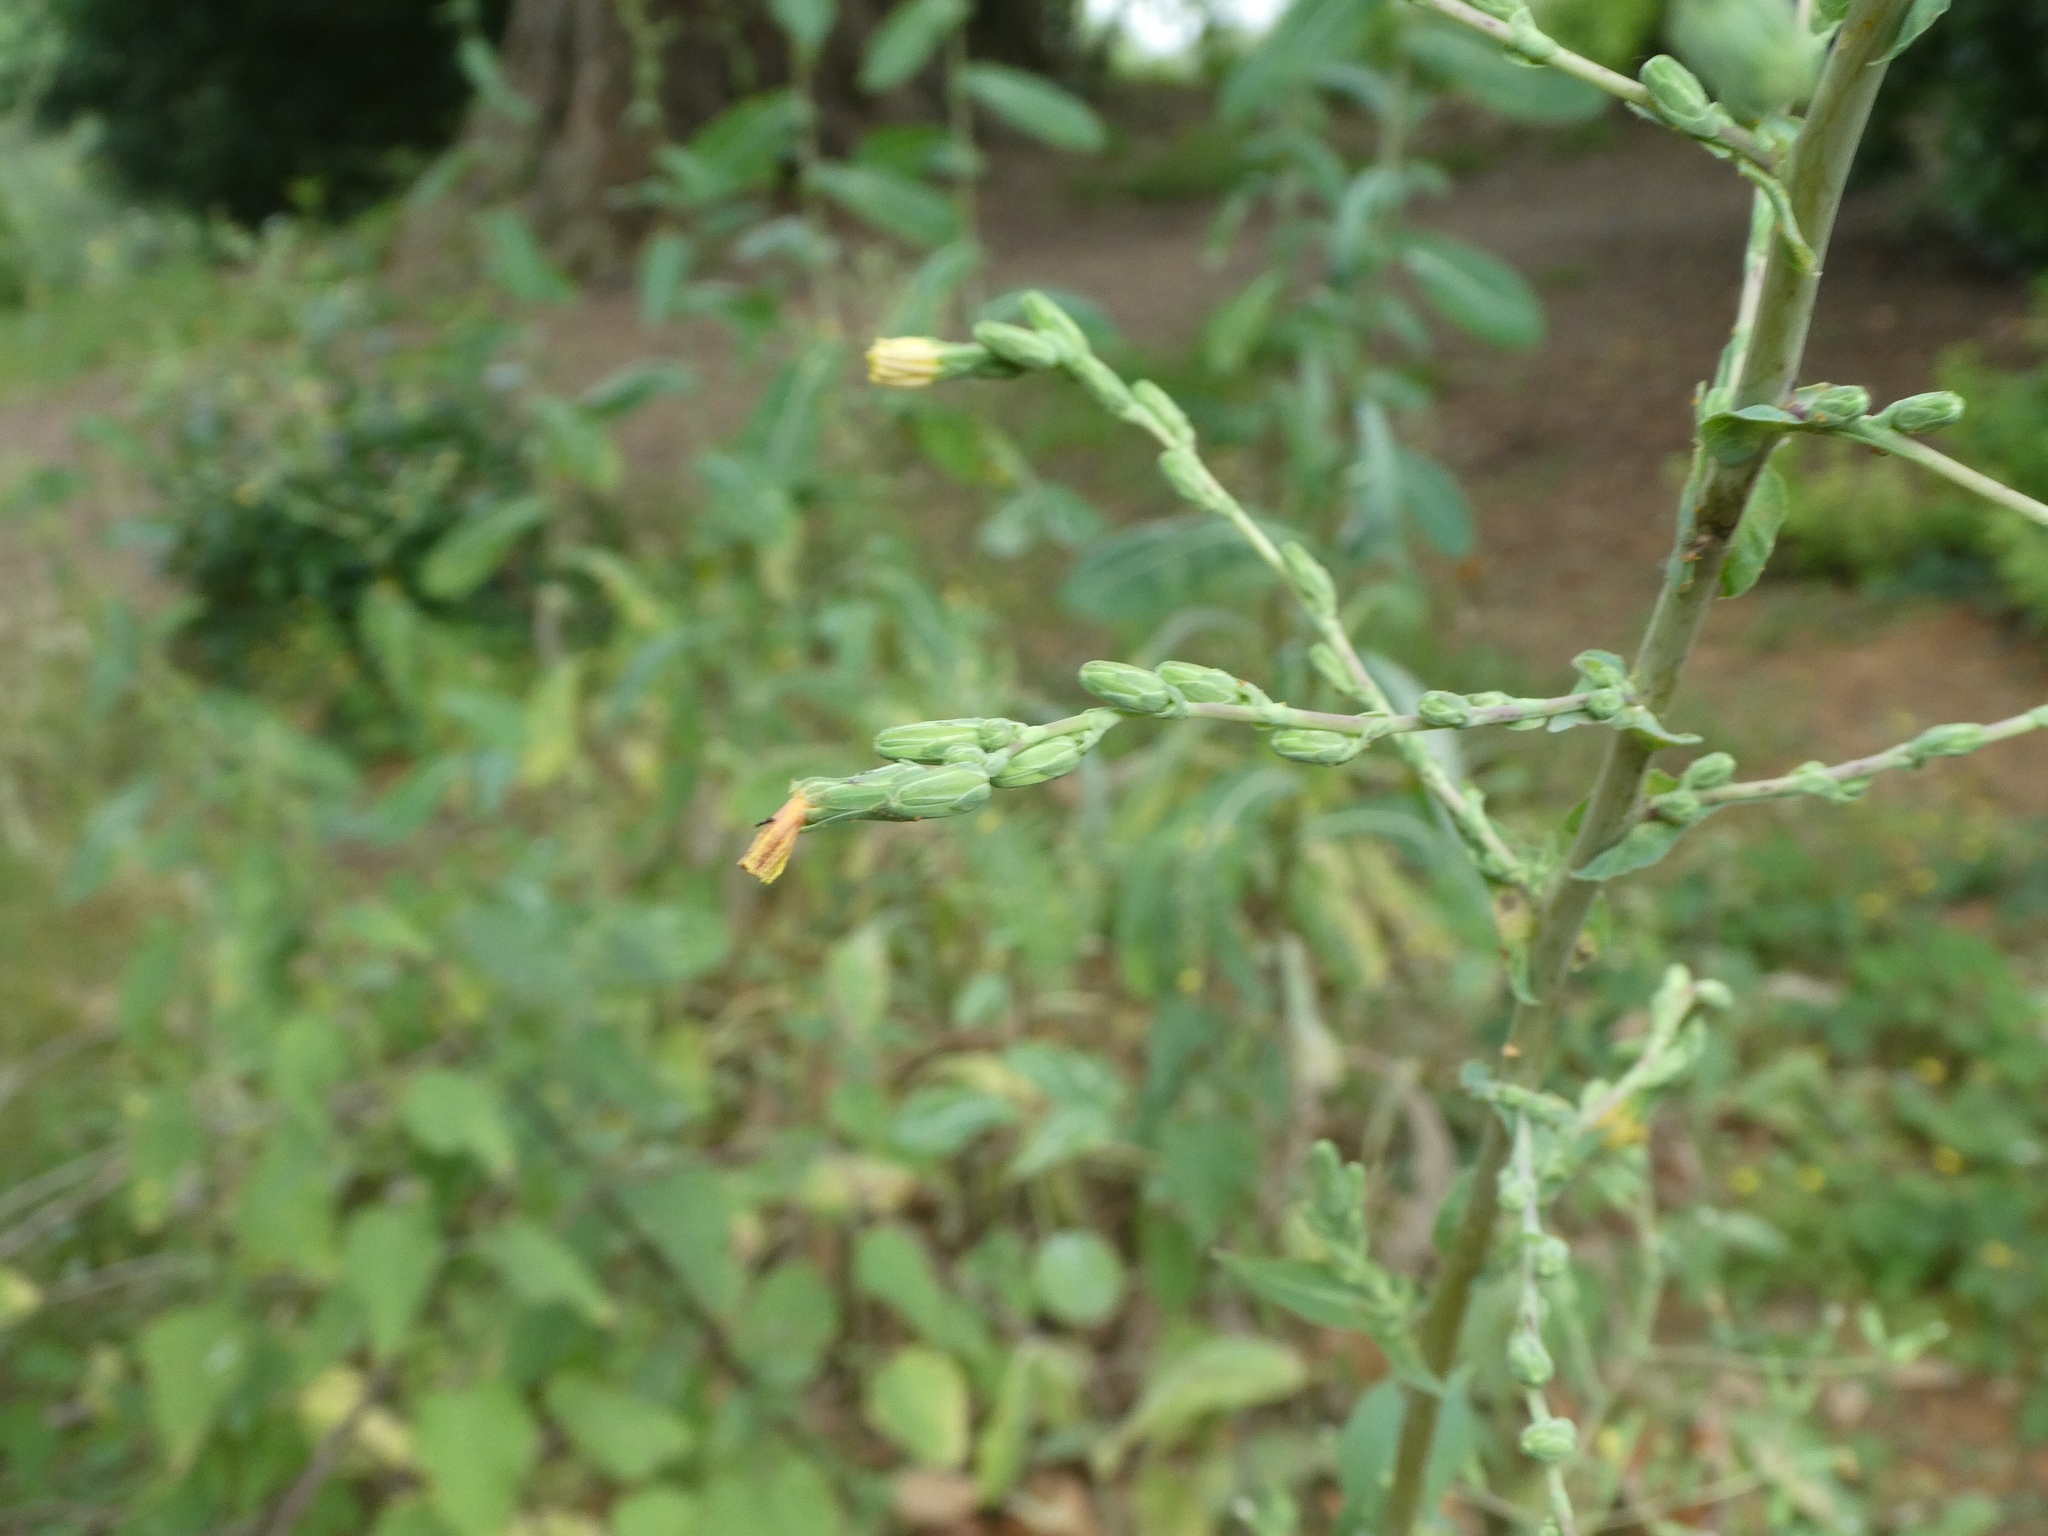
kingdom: Plantae
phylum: Tracheophyta
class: Magnoliopsida
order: Asterales
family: Asteraceae
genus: Lactuca
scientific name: Lactuca serriola
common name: Prickly lettuce
